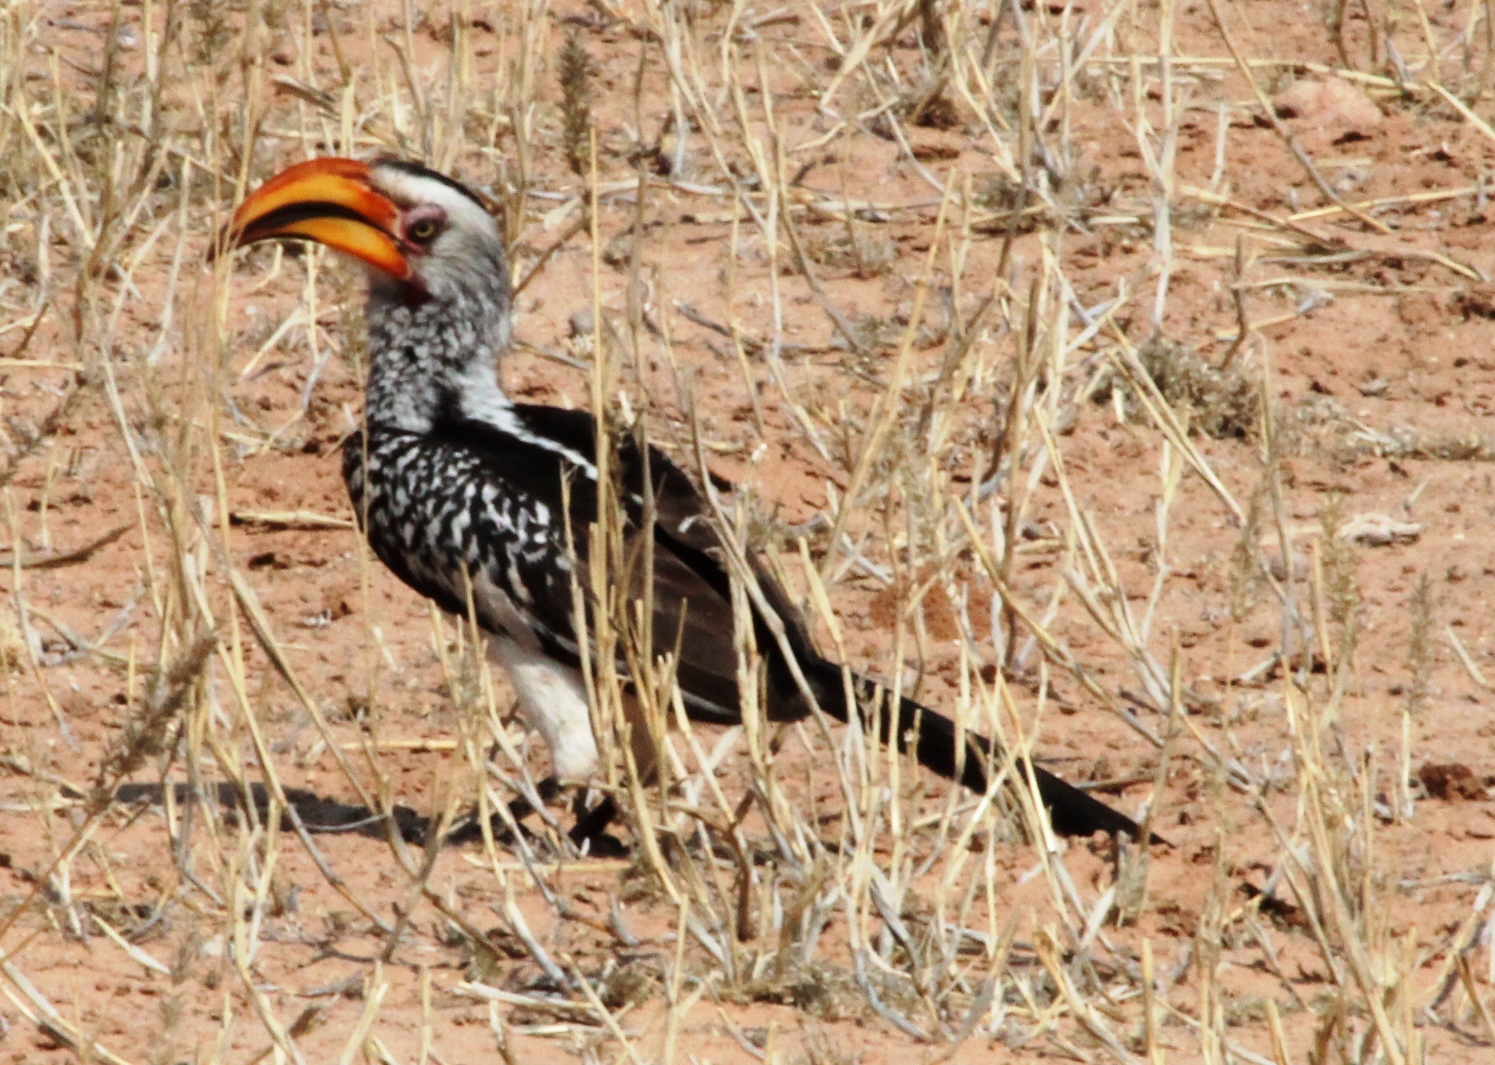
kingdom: Animalia
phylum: Chordata
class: Aves
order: Bucerotiformes
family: Bucerotidae
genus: Tockus
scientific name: Tockus leucomelas
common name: Southern yellow-billed hornbill
